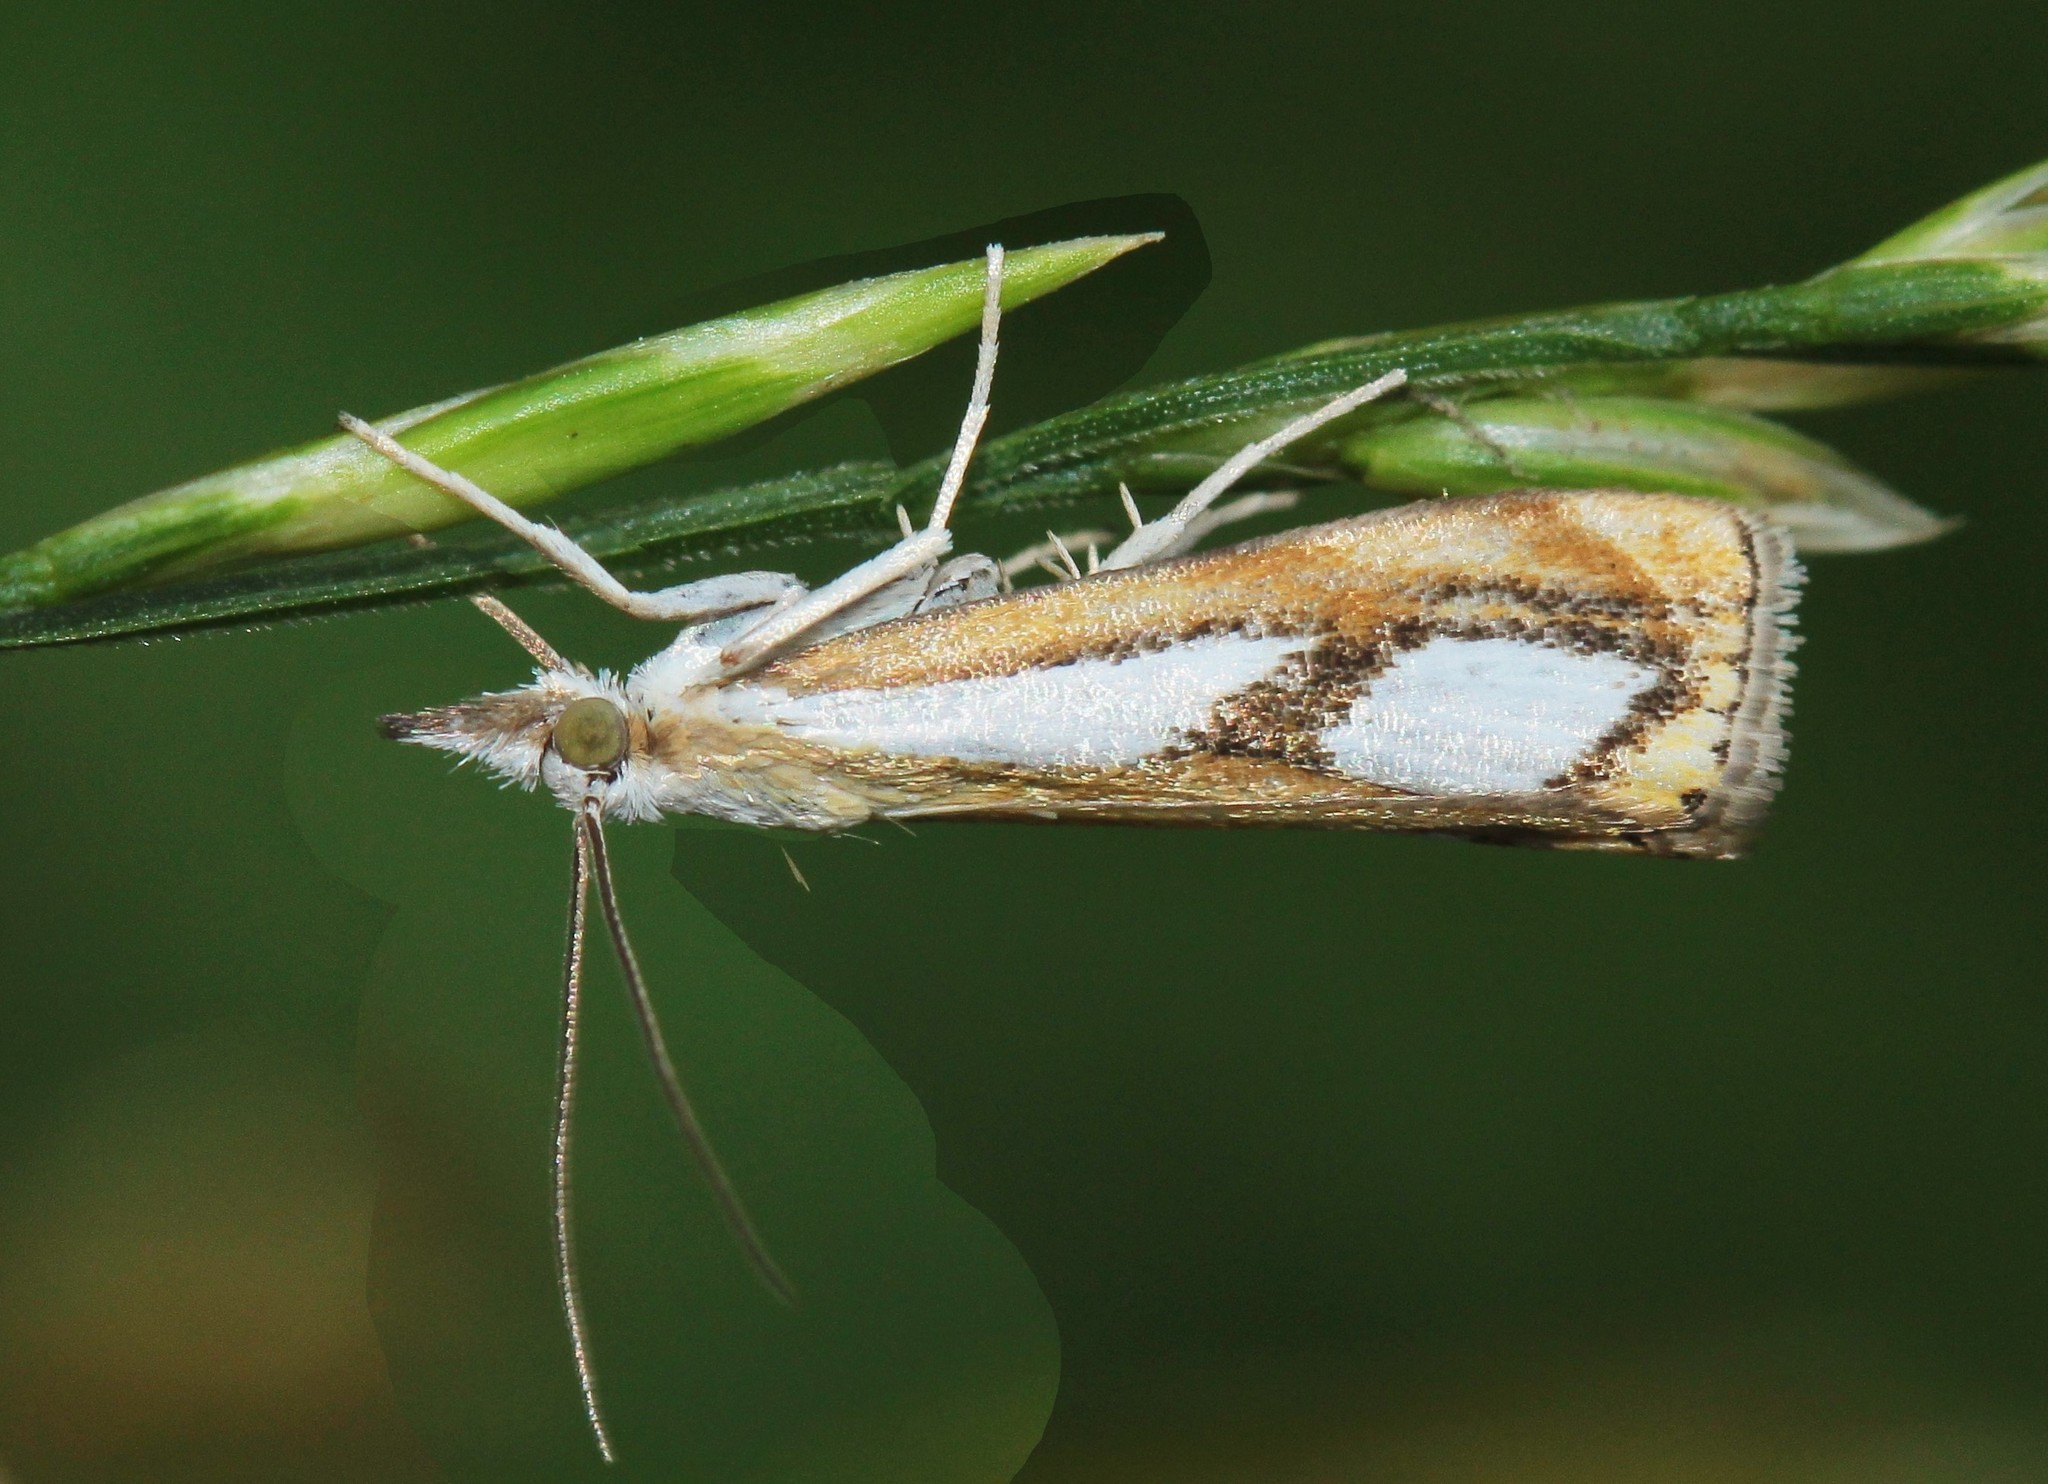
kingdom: Animalia
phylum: Arthropoda
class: Insecta
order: Lepidoptera
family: Crambidae
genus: Catoptria
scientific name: Catoptria pinella
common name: Pearl grass-veneer
